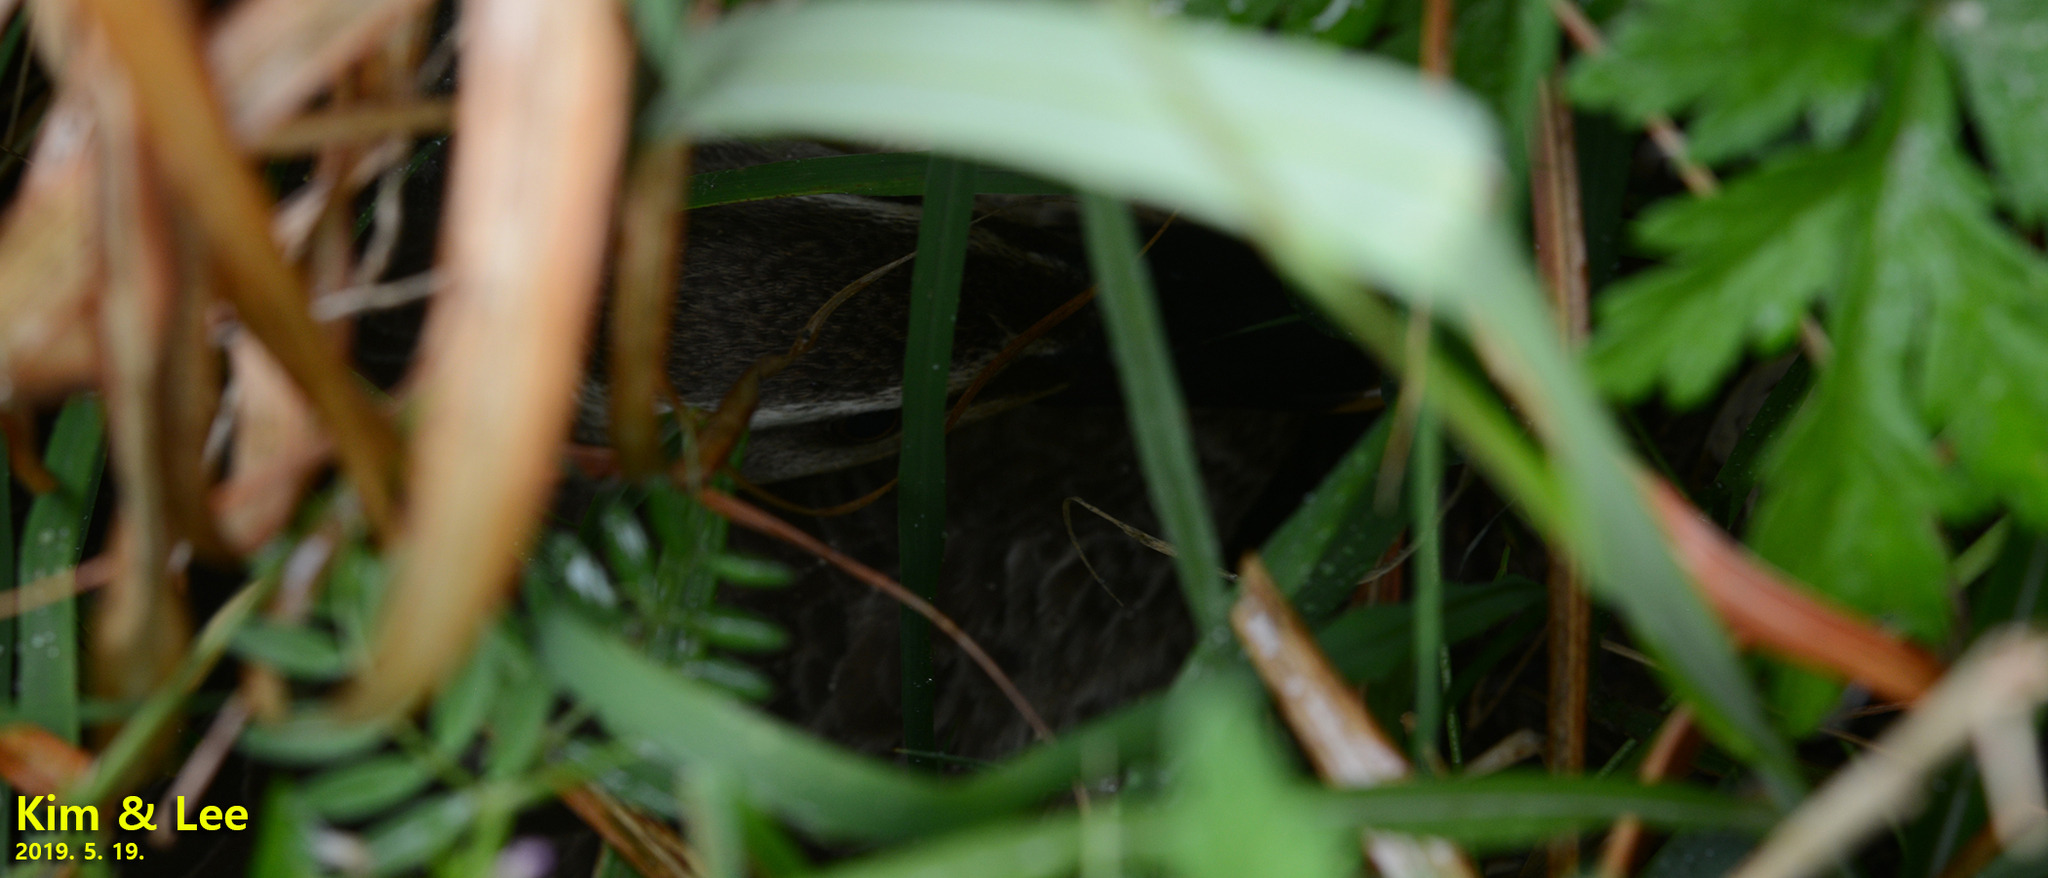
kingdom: Animalia
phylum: Chordata
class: Aves
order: Anseriformes
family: Anatidae
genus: Anas
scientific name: Anas zonorhyncha
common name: Eastern spot-billed duck
